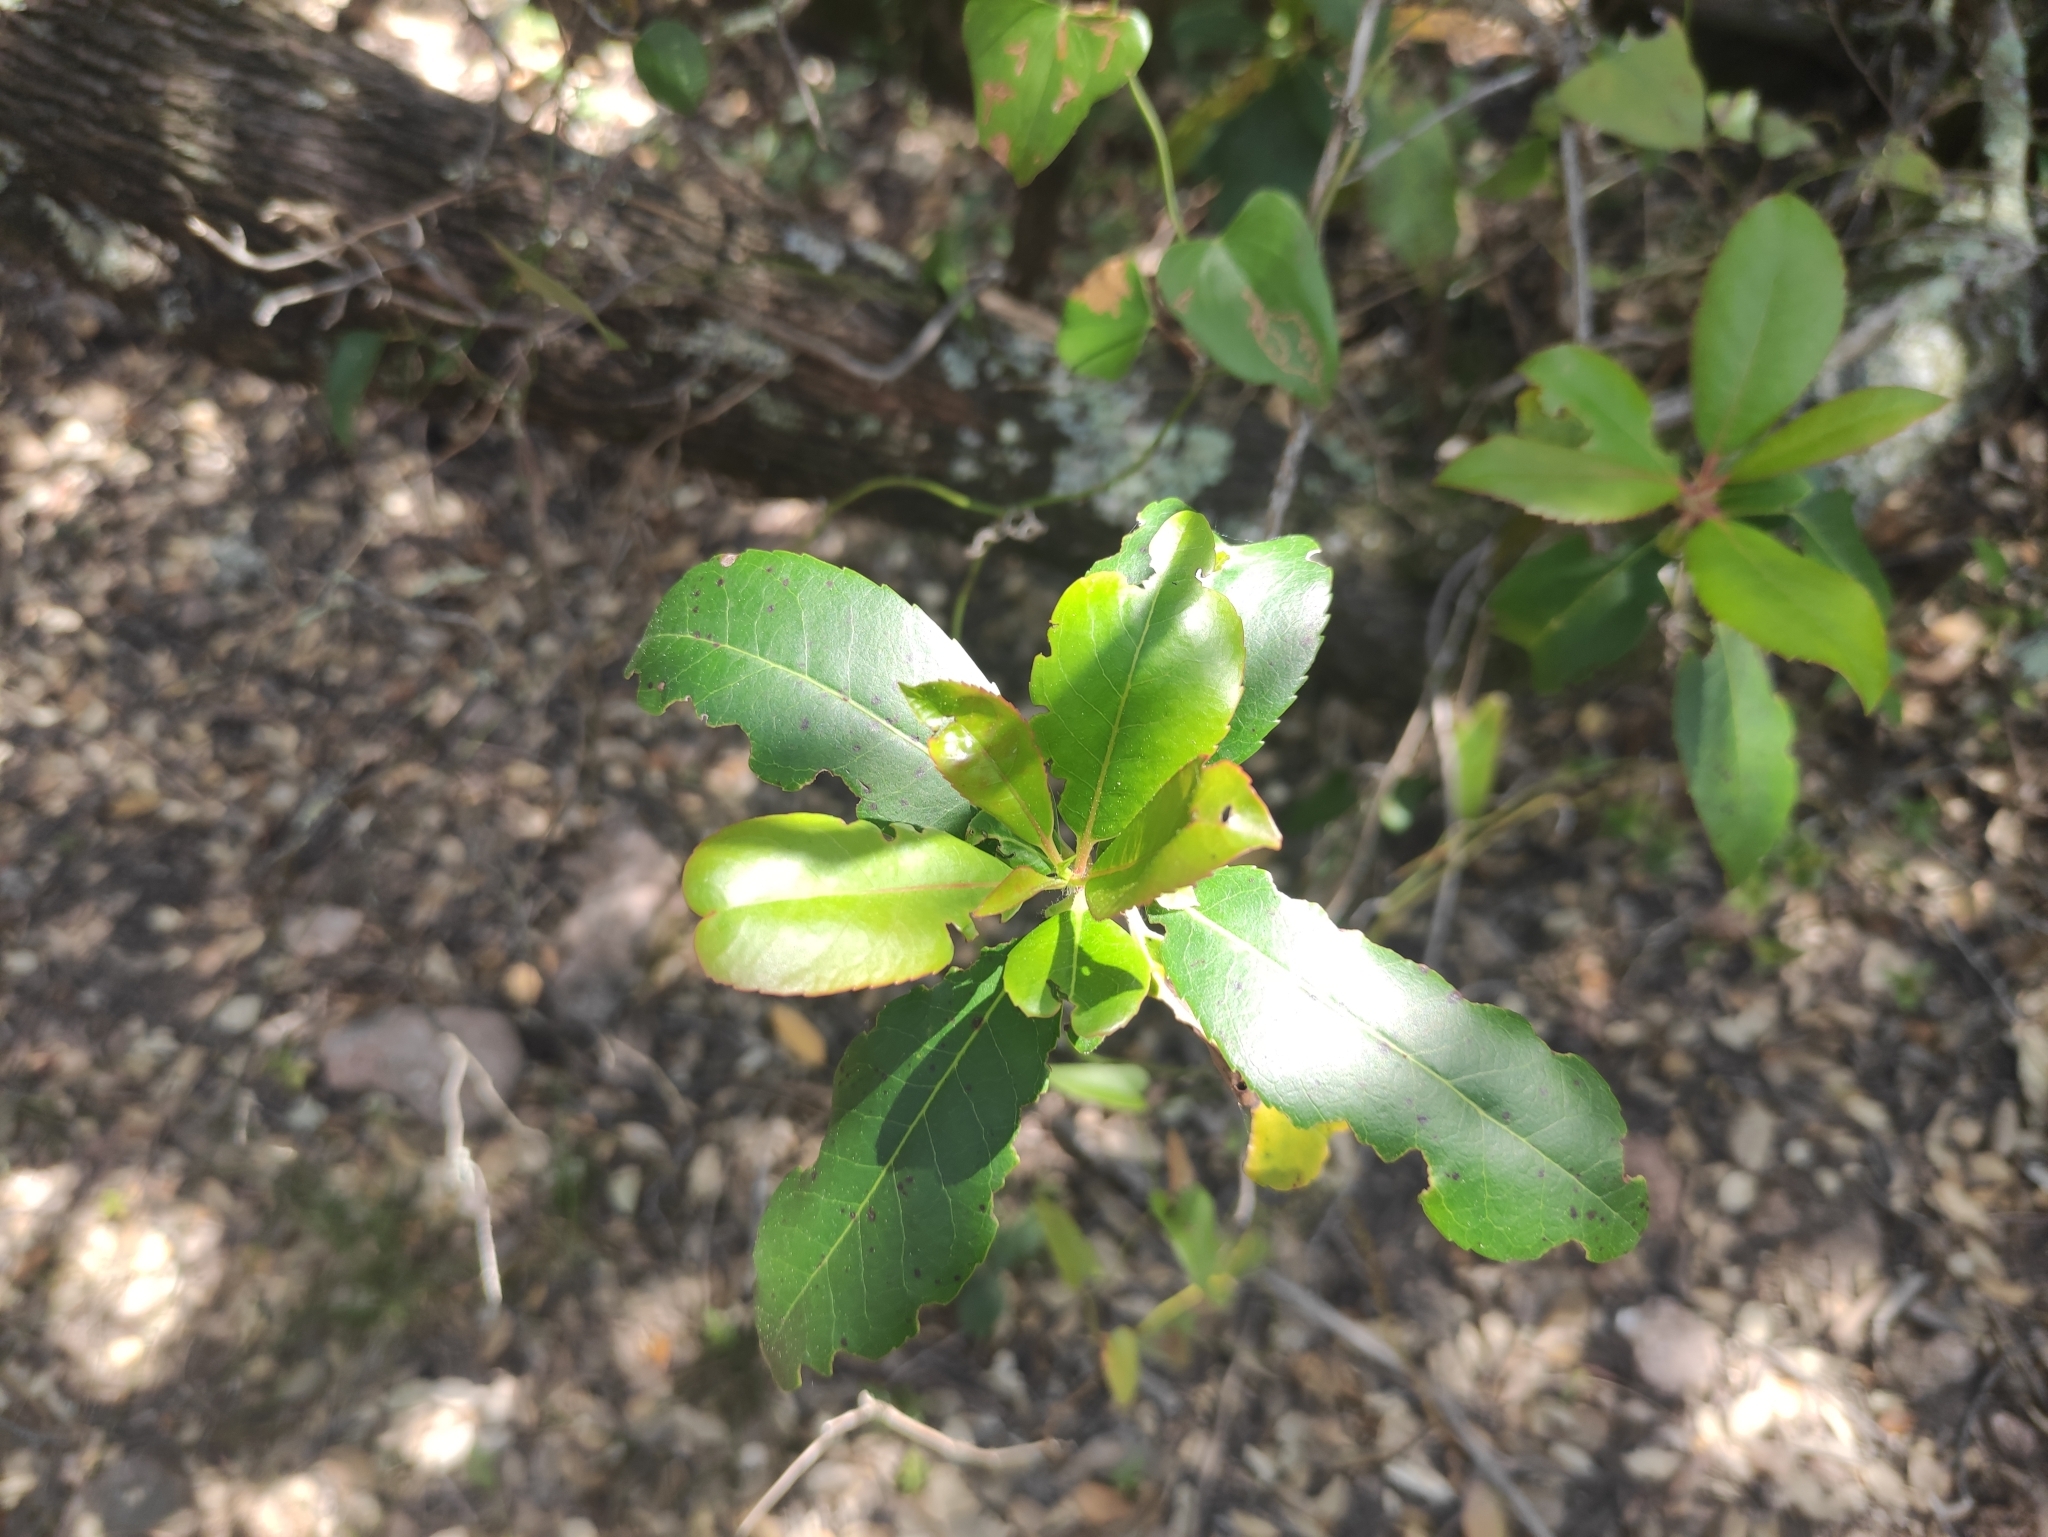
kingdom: Plantae
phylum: Tracheophyta
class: Magnoliopsida
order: Ericales
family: Ericaceae
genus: Arbutus
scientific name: Arbutus unedo
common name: Strawberry-tree
